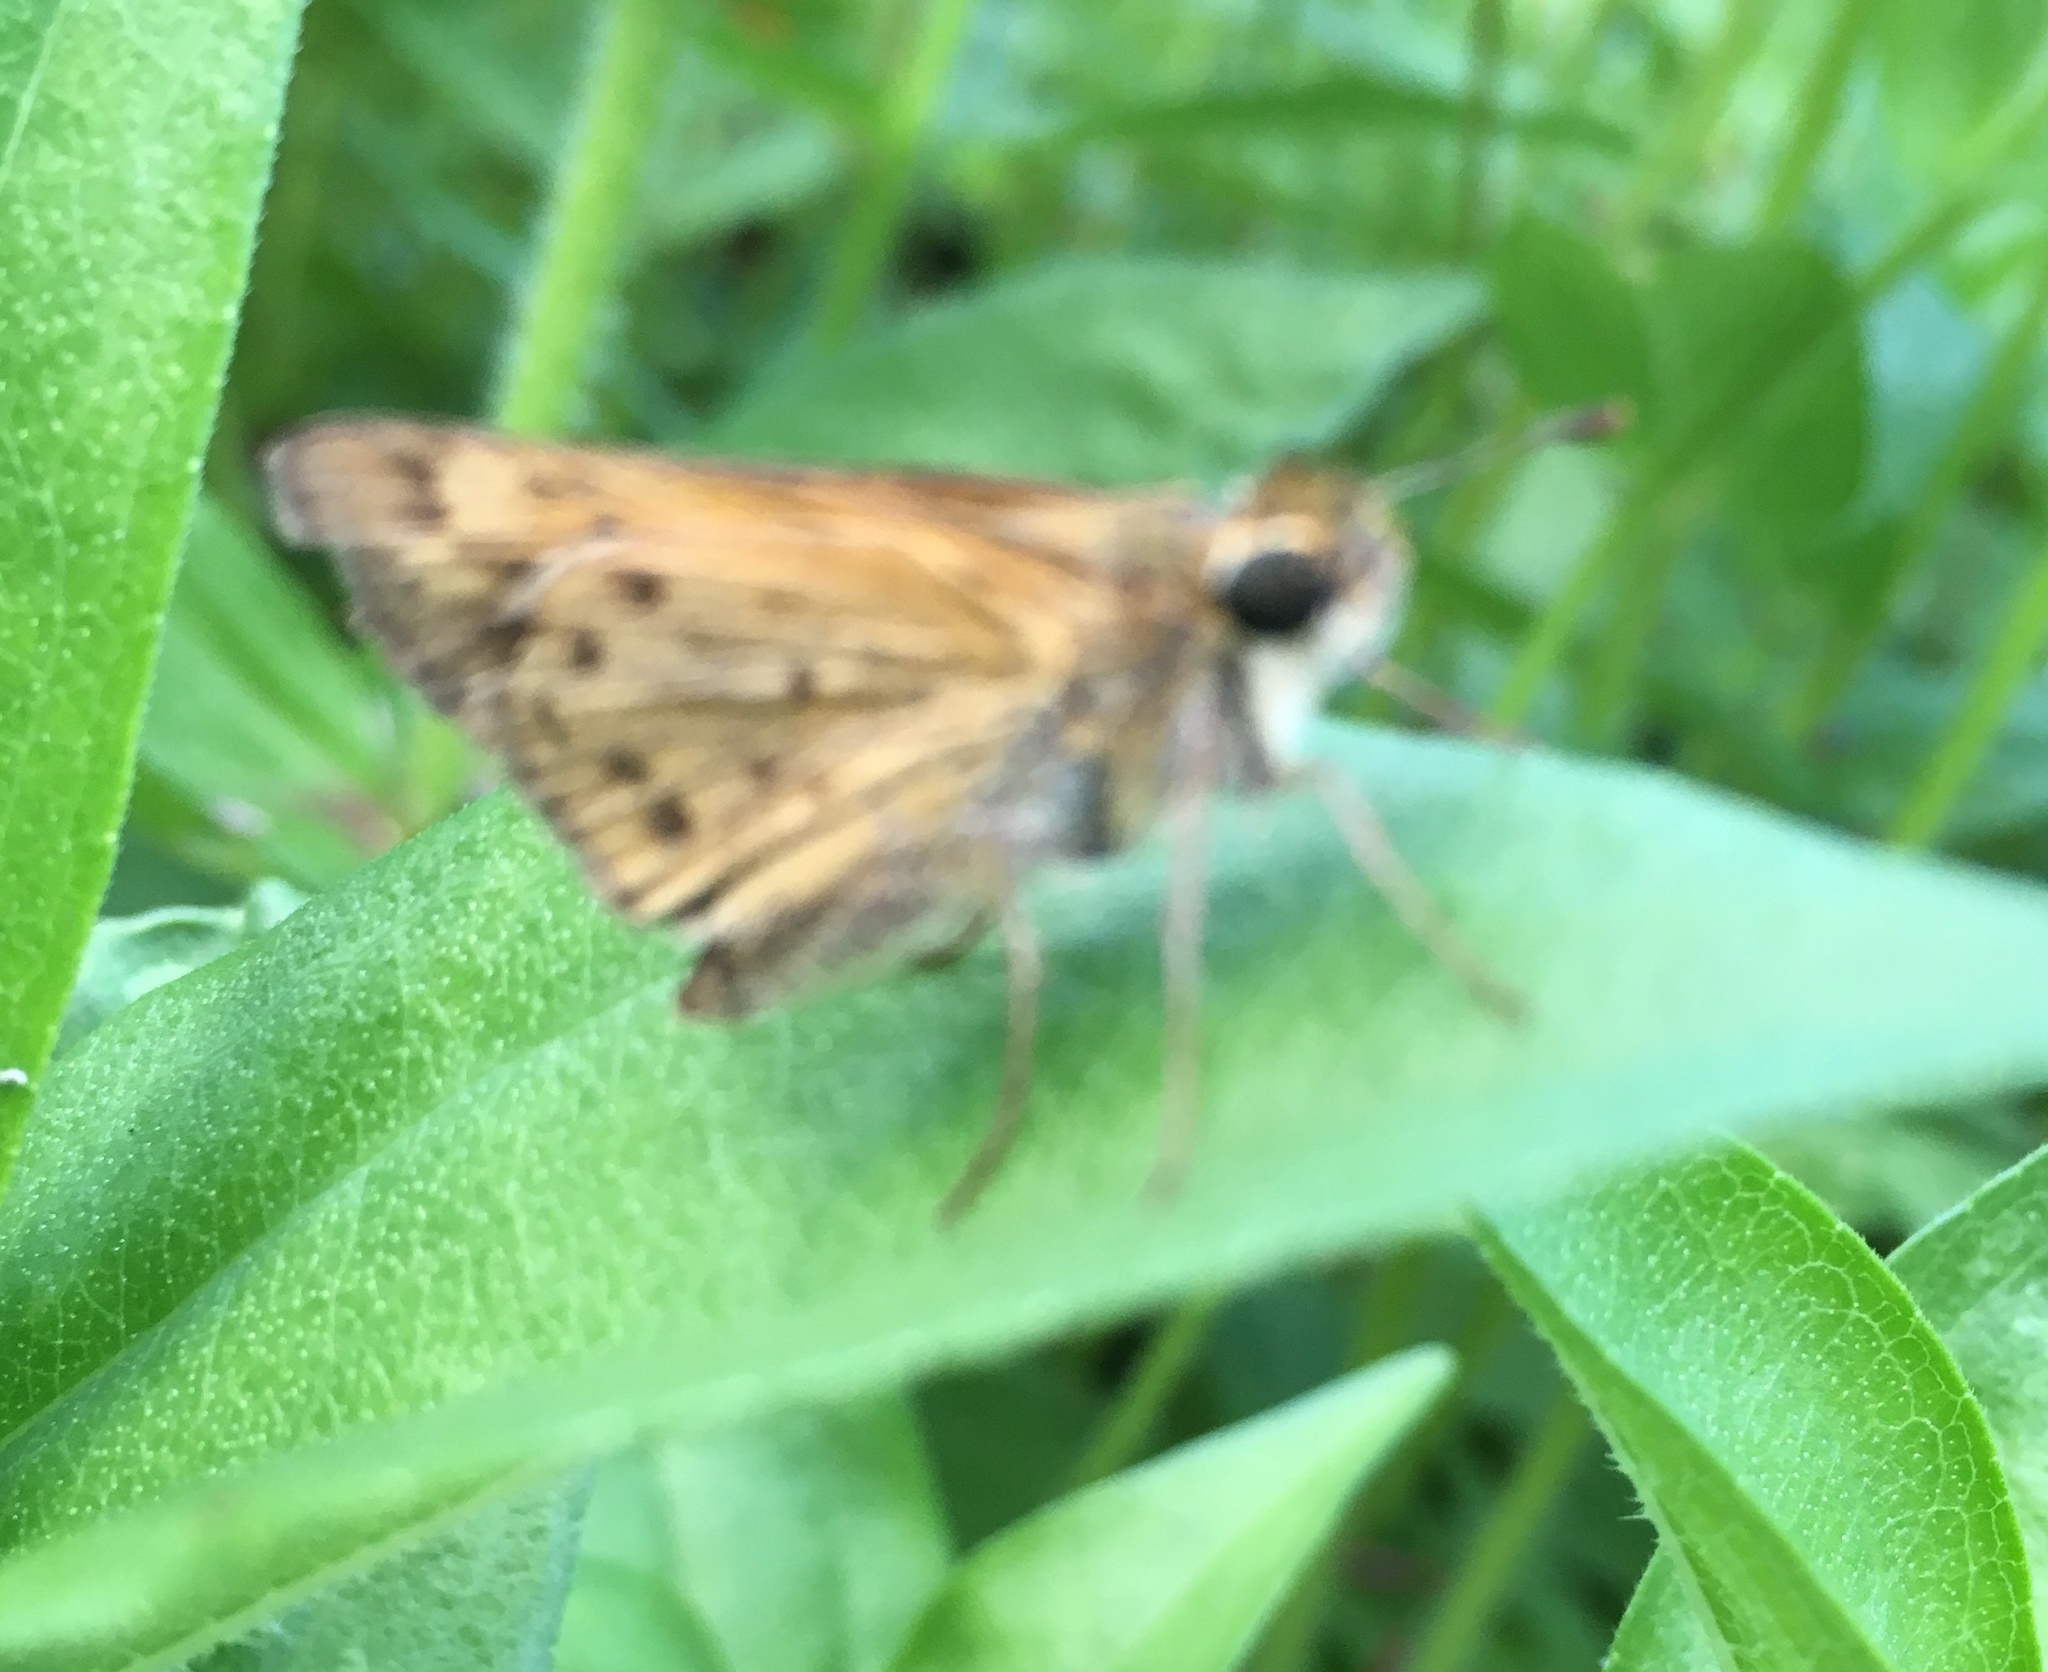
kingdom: Animalia
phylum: Arthropoda
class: Insecta
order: Lepidoptera
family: Hesperiidae
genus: Hylephila
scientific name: Hylephila phyleus
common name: Fiery skipper
